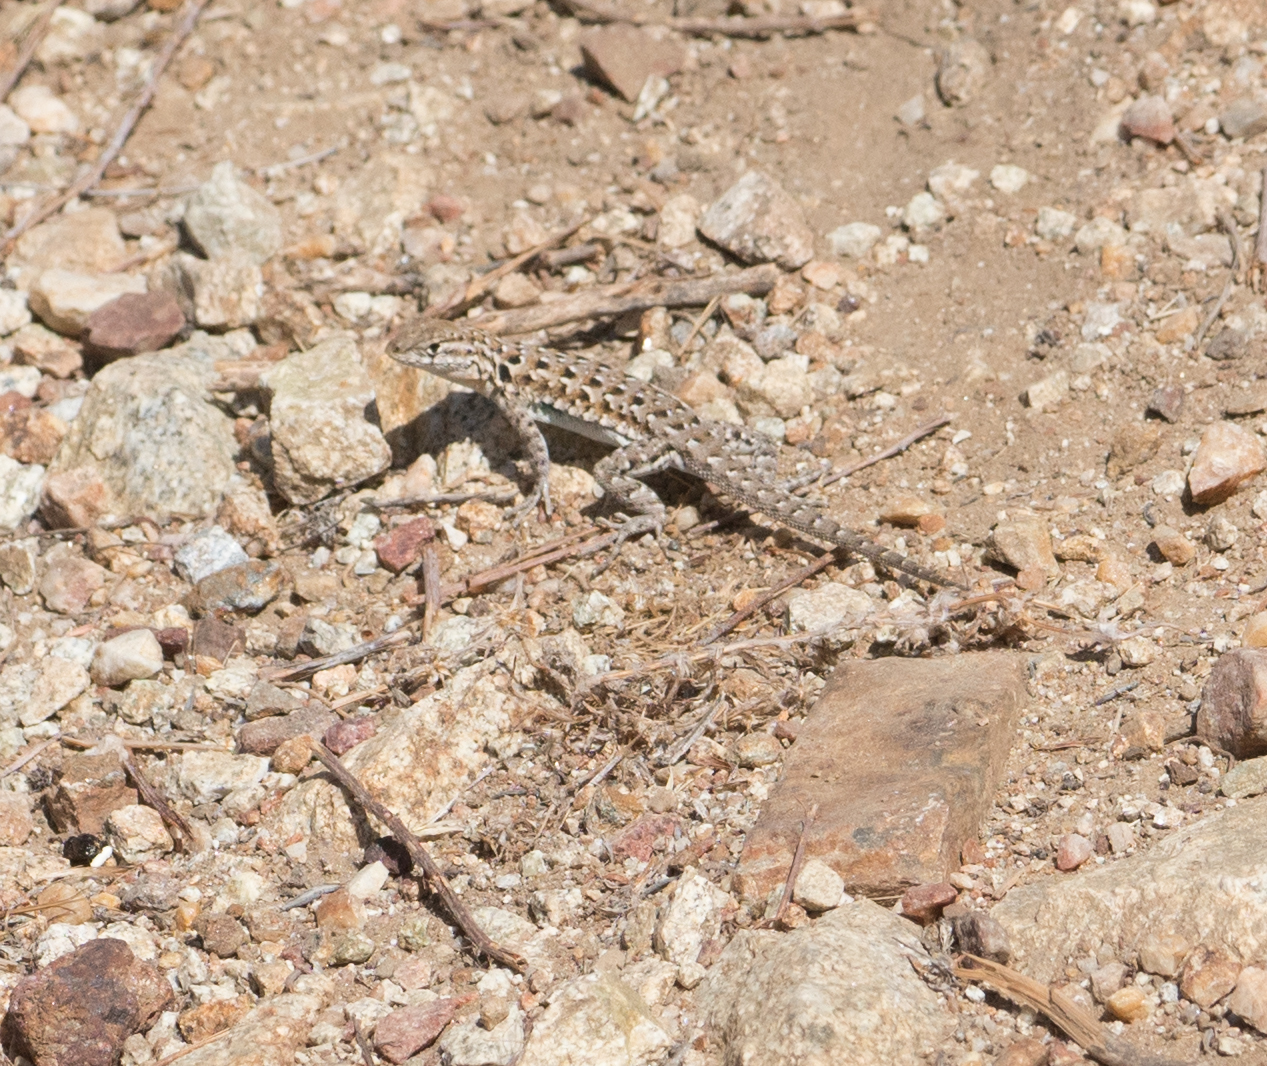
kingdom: Animalia
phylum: Chordata
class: Squamata
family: Phrynosomatidae
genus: Uta
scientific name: Uta stansburiana
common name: Side-blotched lizard
